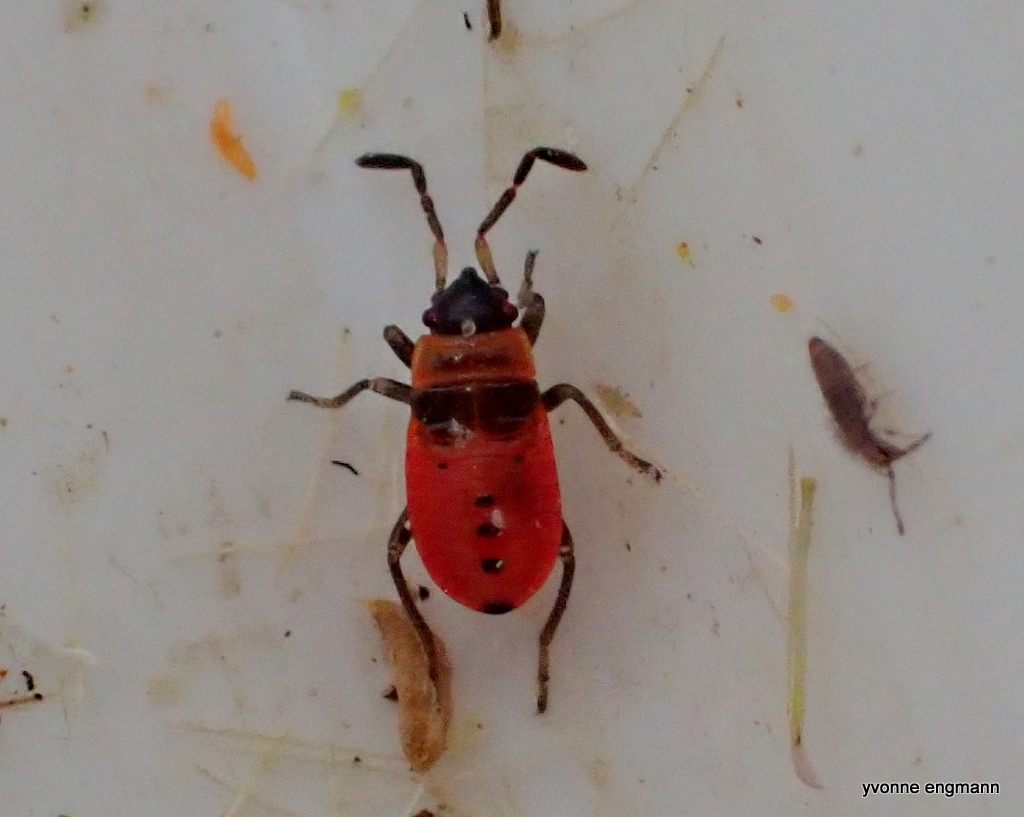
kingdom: Animalia
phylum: Arthropoda
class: Insecta
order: Hemiptera
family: Pyrrhocoridae
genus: Pyrrhocoris
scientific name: Pyrrhocoris apterus
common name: Firebug
